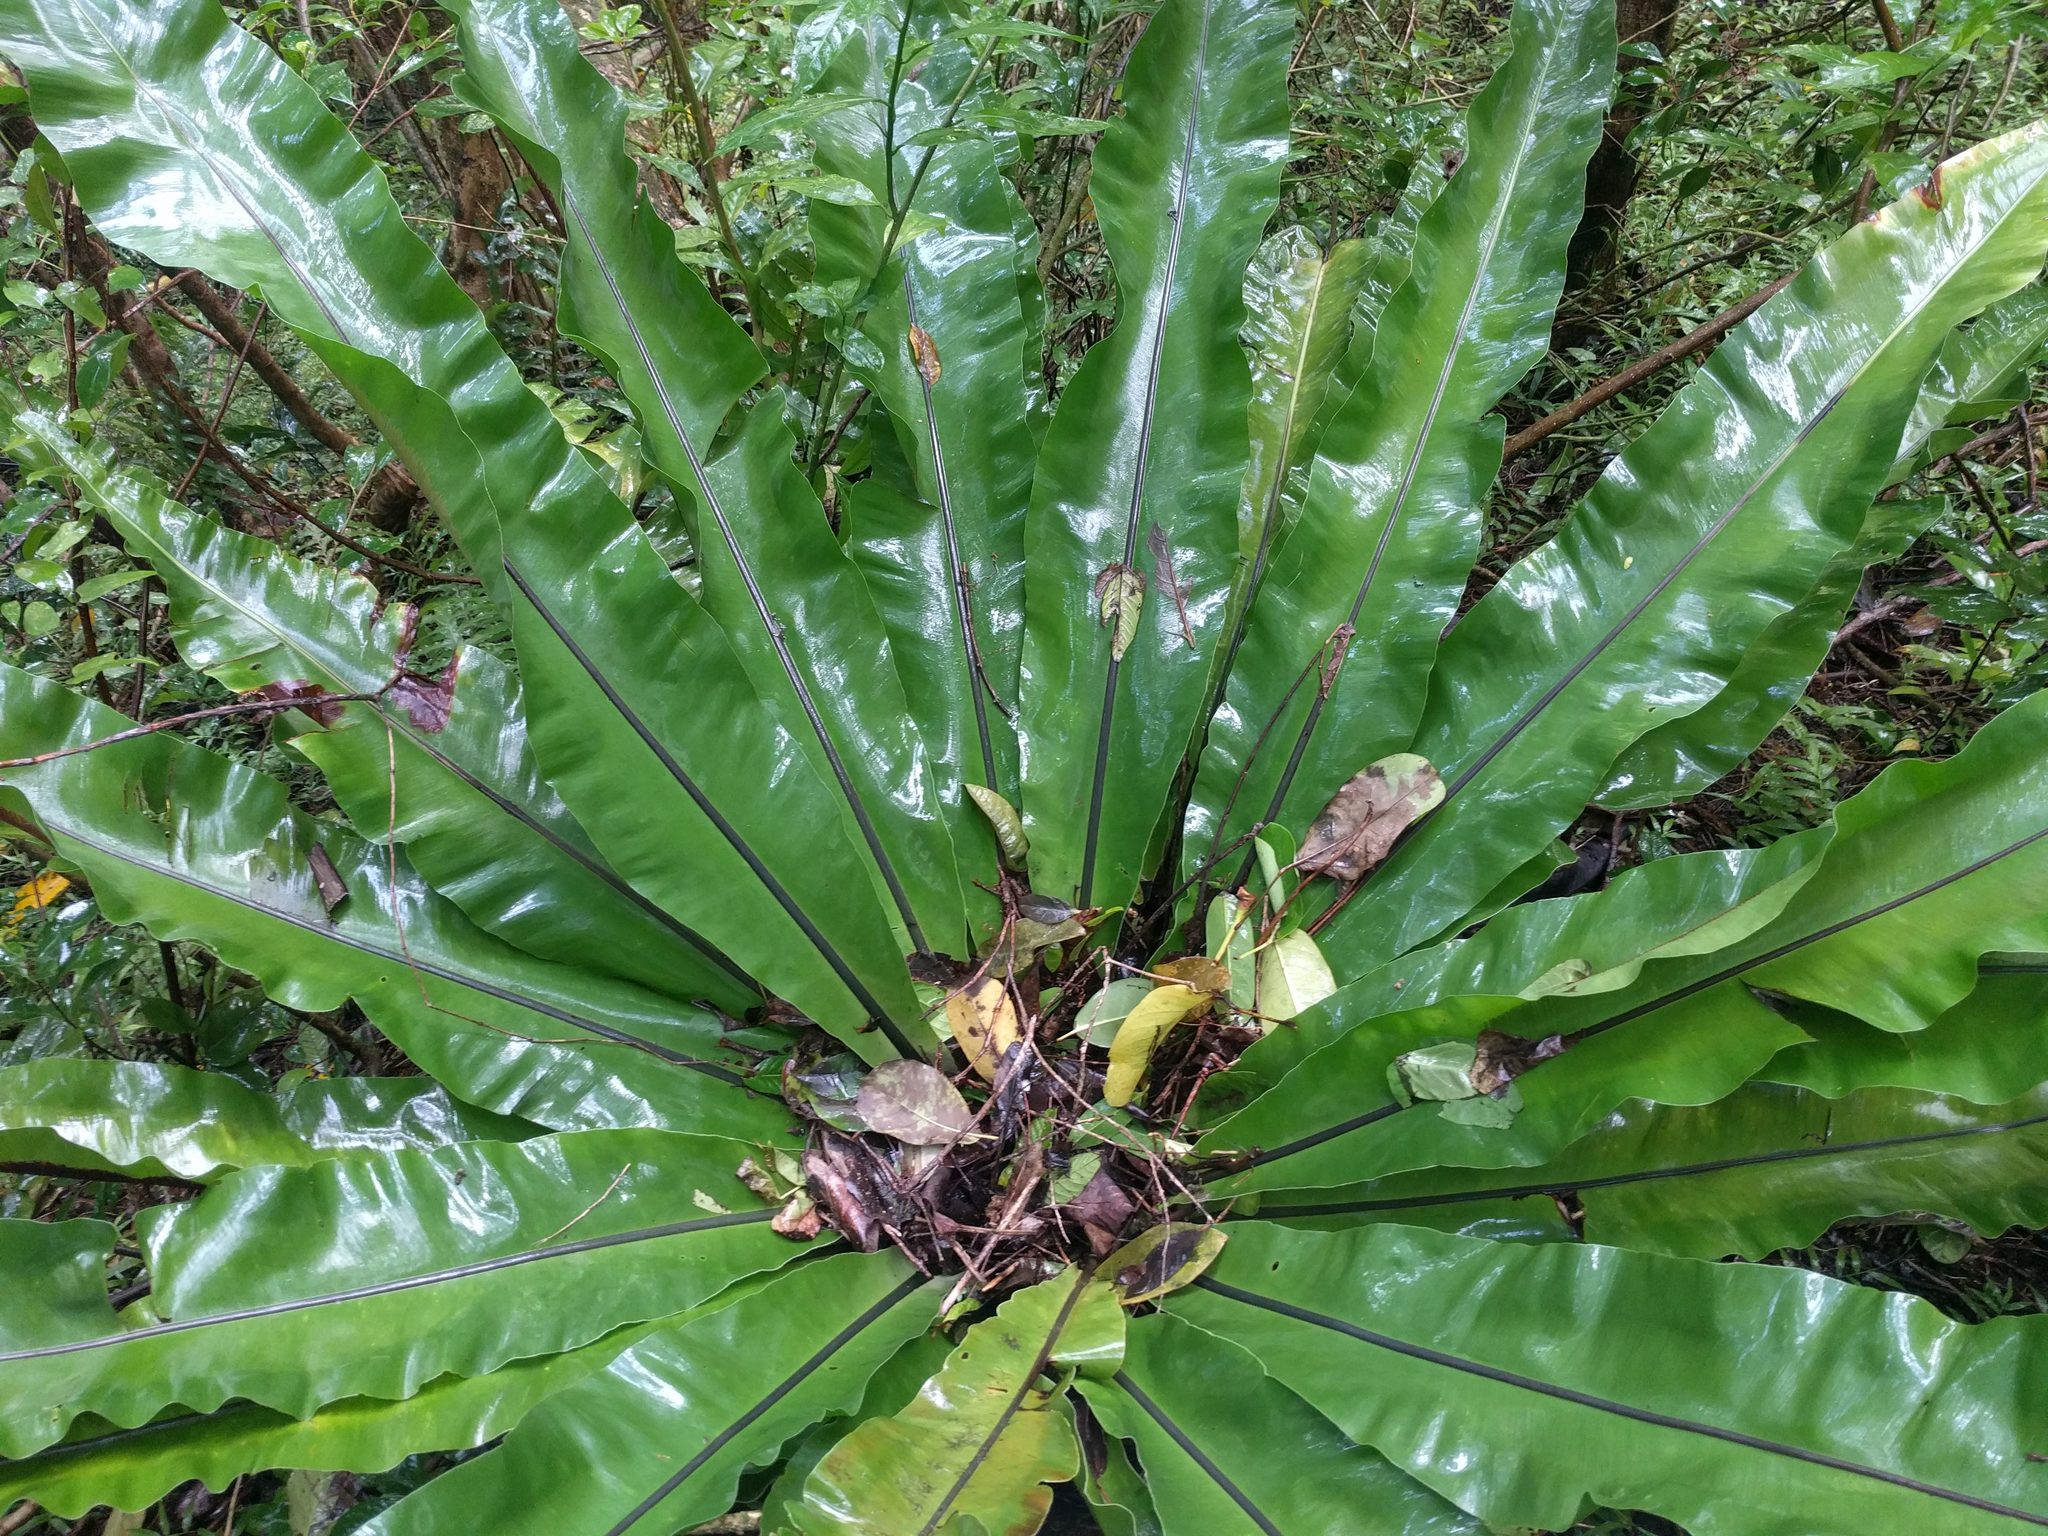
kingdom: Plantae
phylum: Tracheophyta
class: Polypodiopsida
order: Polypodiales
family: Aspleniaceae
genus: Asplenium
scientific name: Asplenium nidus
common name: Bird's-nest fern
